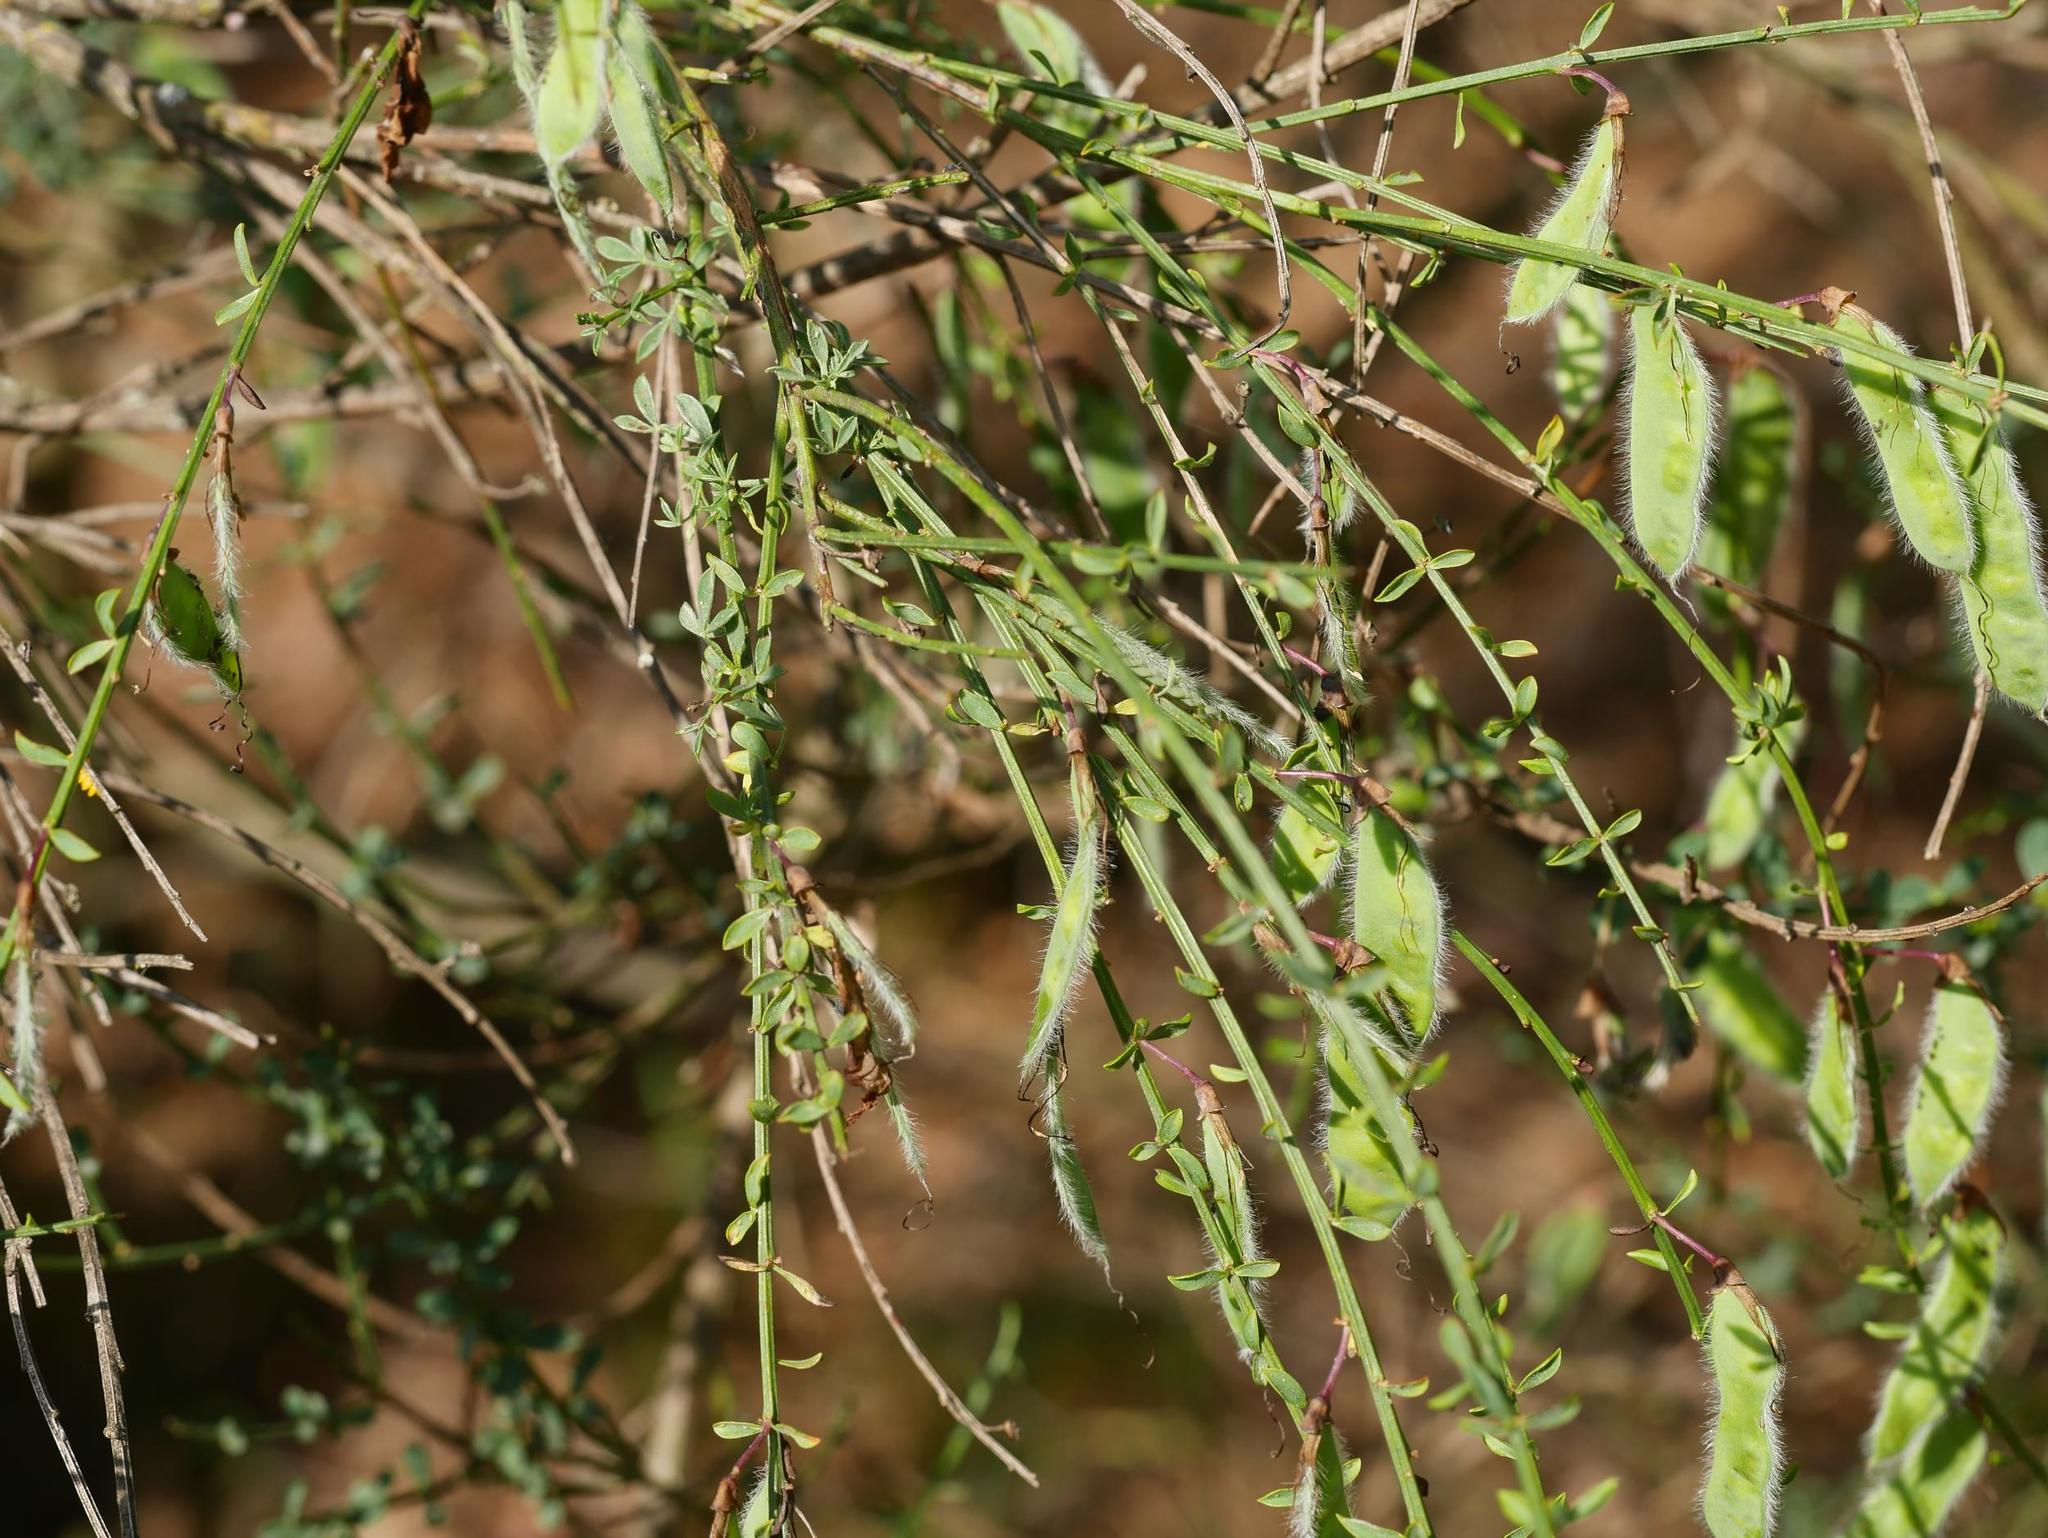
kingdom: Plantae
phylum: Tracheophyta
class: Magnoliopsida
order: Fabales
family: Fabaceae
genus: Cytisus
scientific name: Cytisus scoparius
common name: Scotch broom
